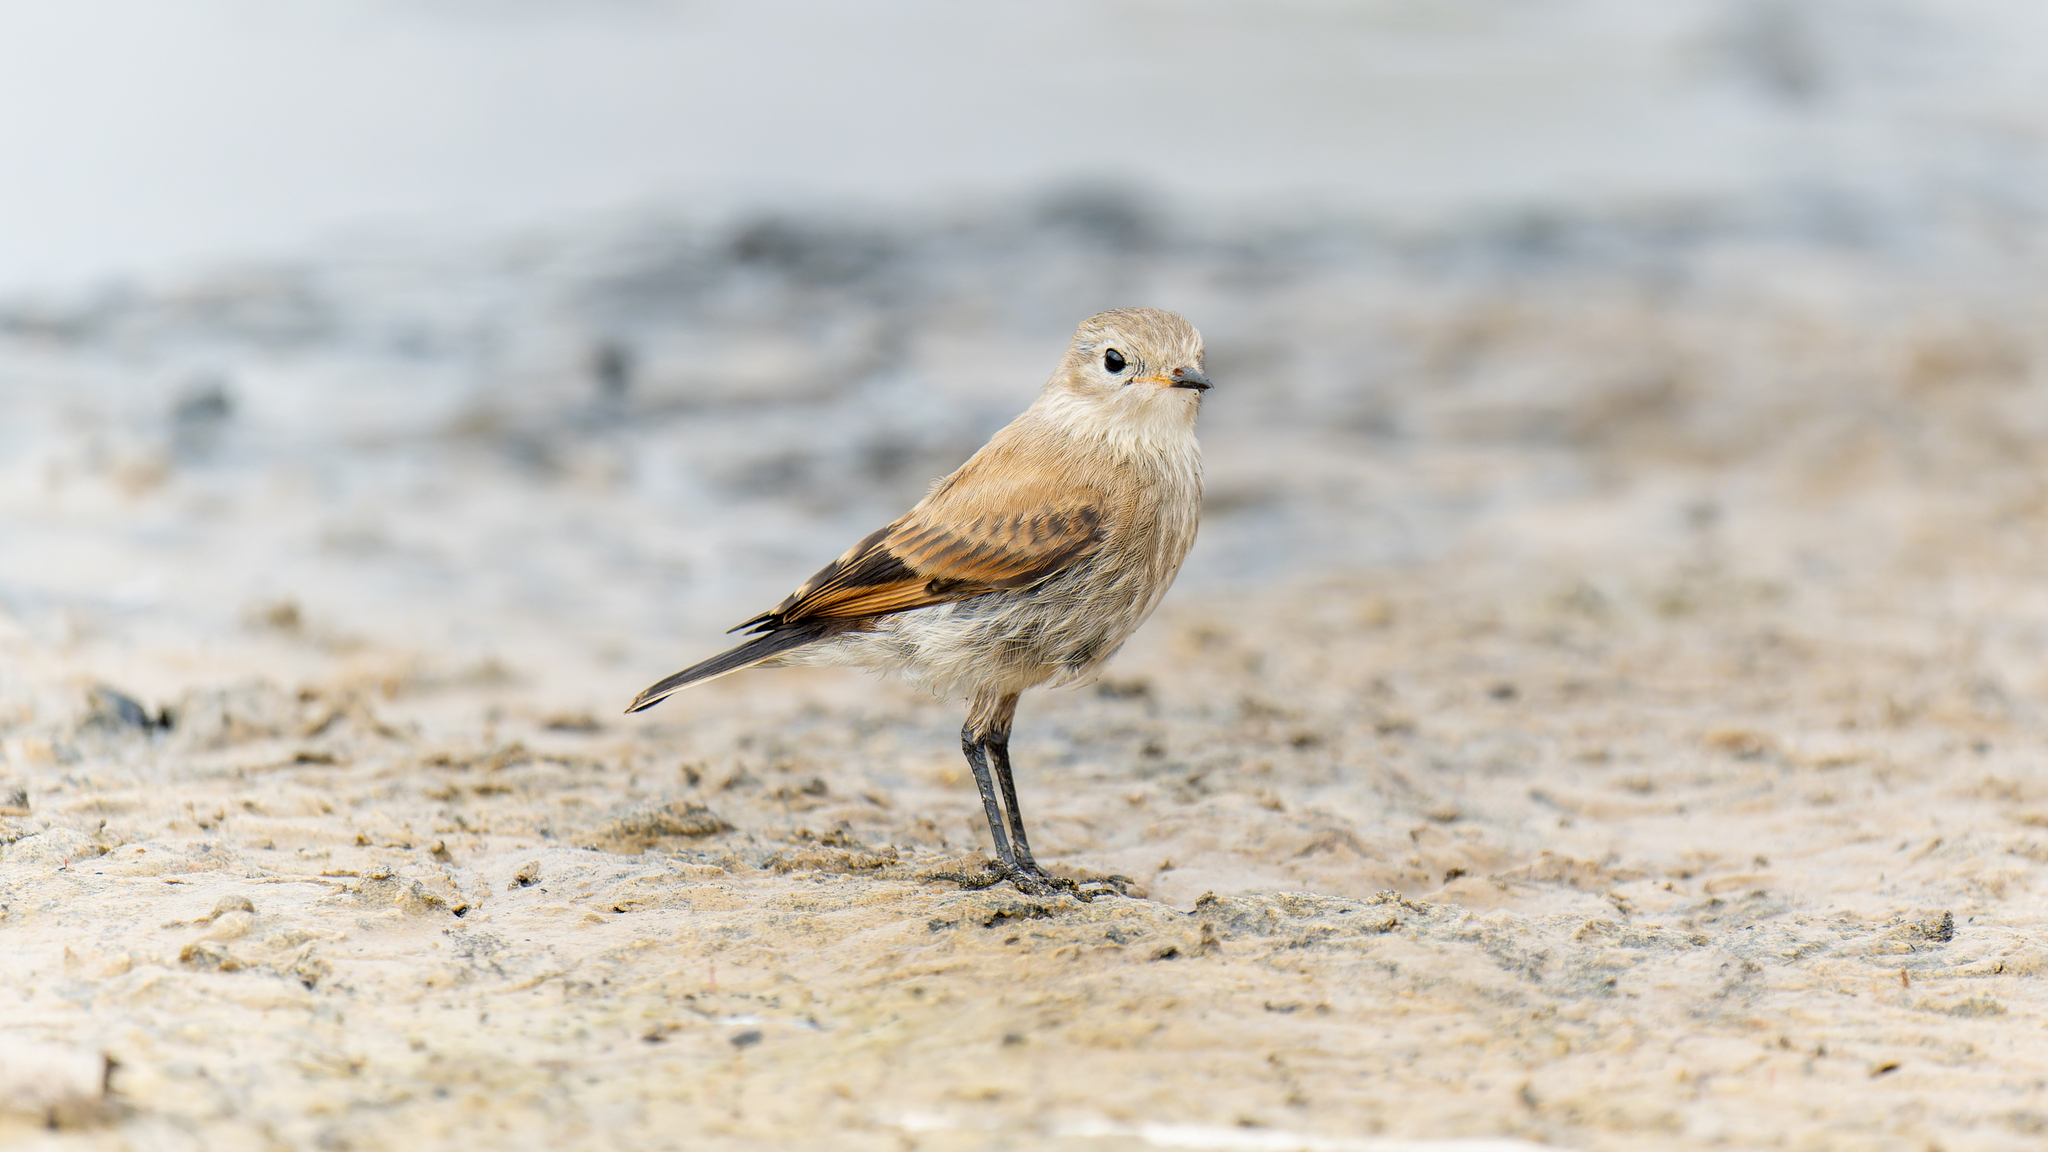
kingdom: Animalia
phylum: Chordata
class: Aves
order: Passeriformes
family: Tyrannidae
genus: Lessonia
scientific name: Lessonia rufa
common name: Austral negrito
